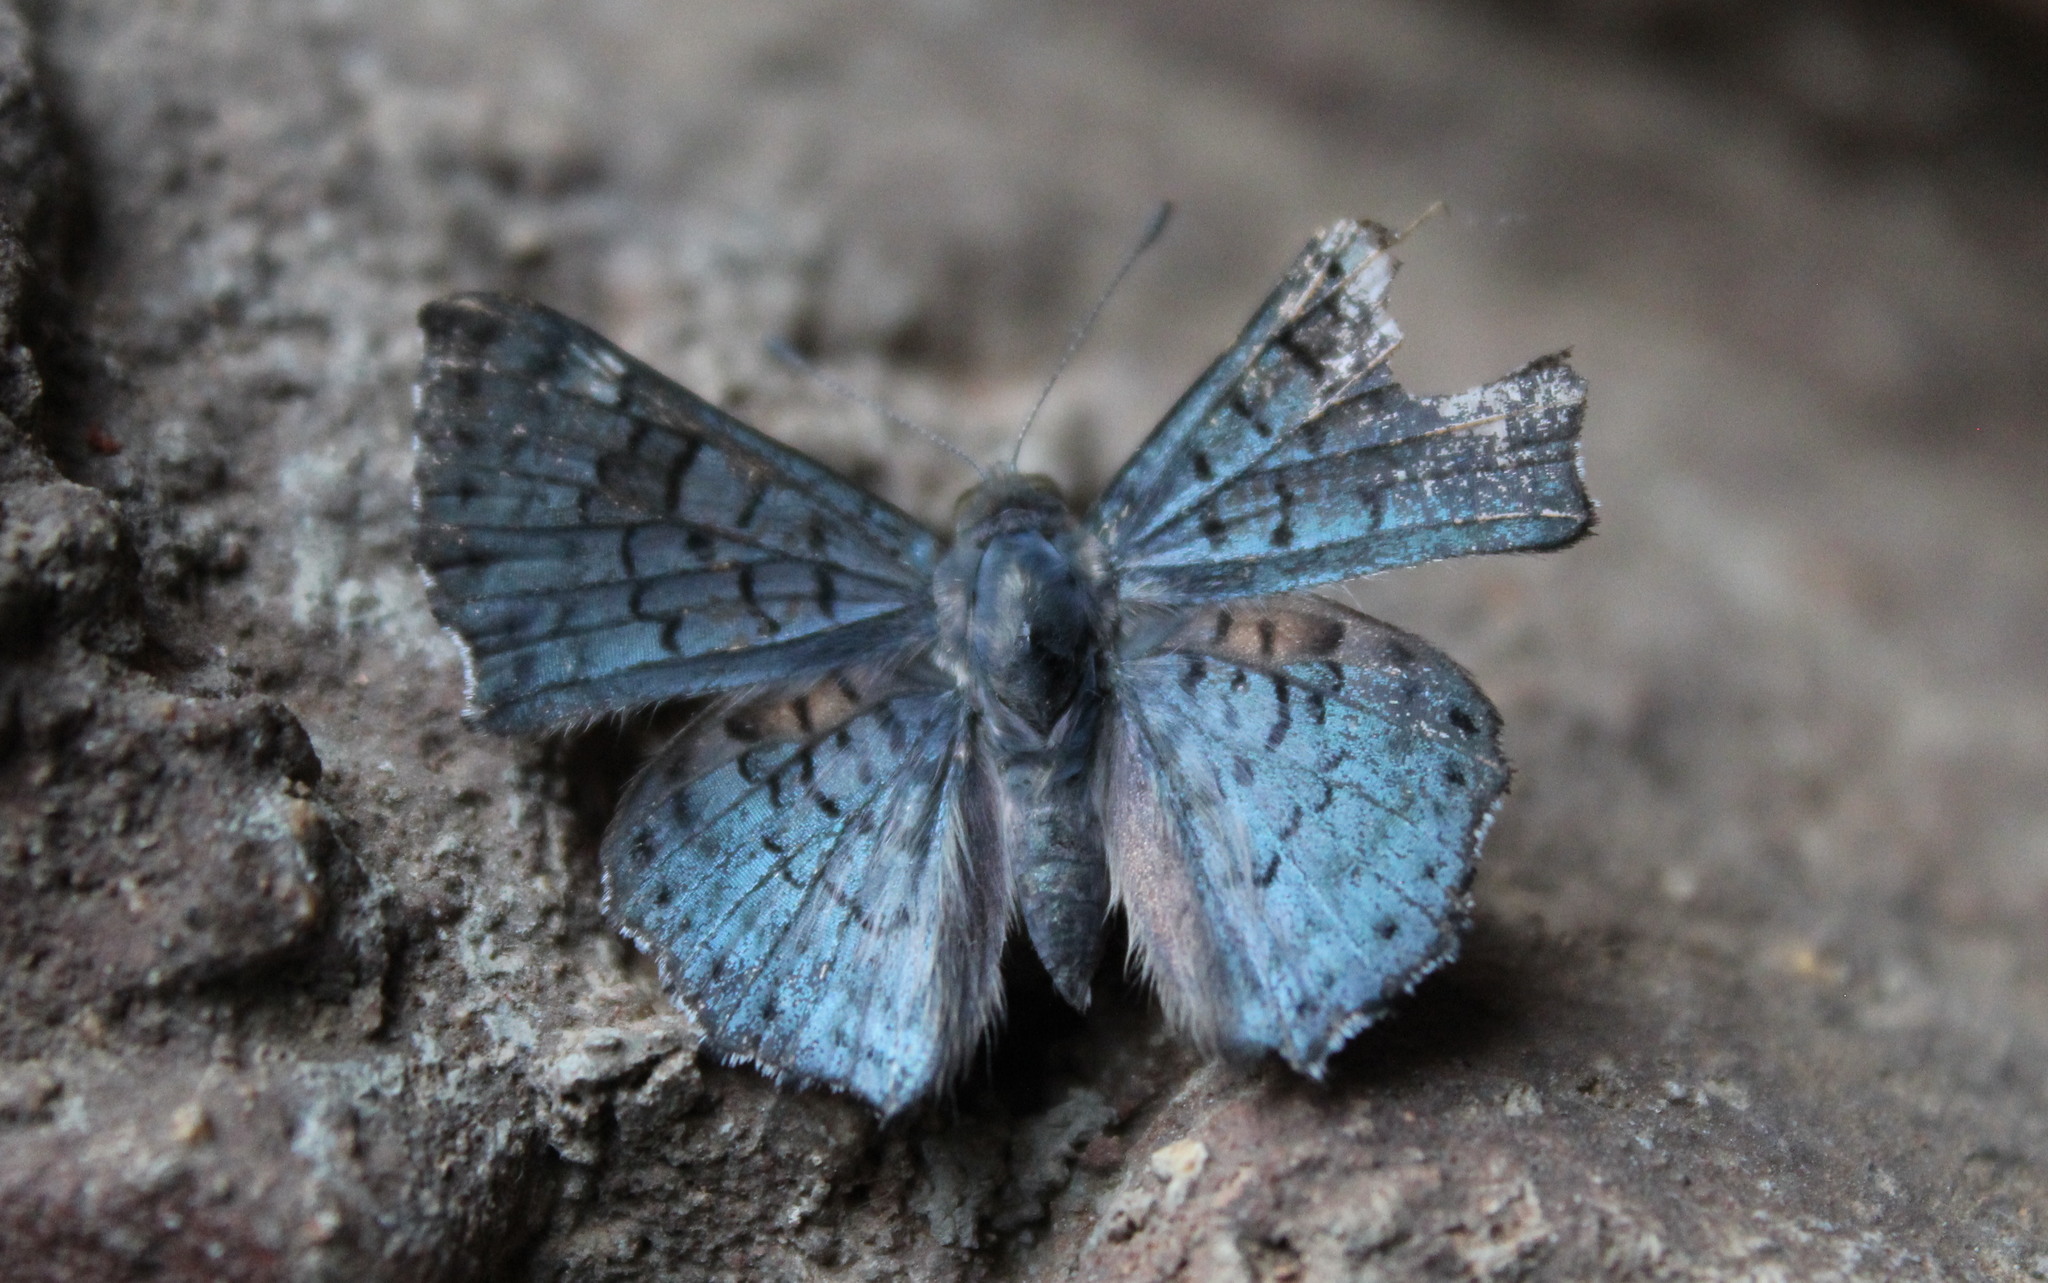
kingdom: Animalia
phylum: Arthropoda
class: Insecta
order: Lepidoptera
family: Riodinidae
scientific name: Riodinidae
